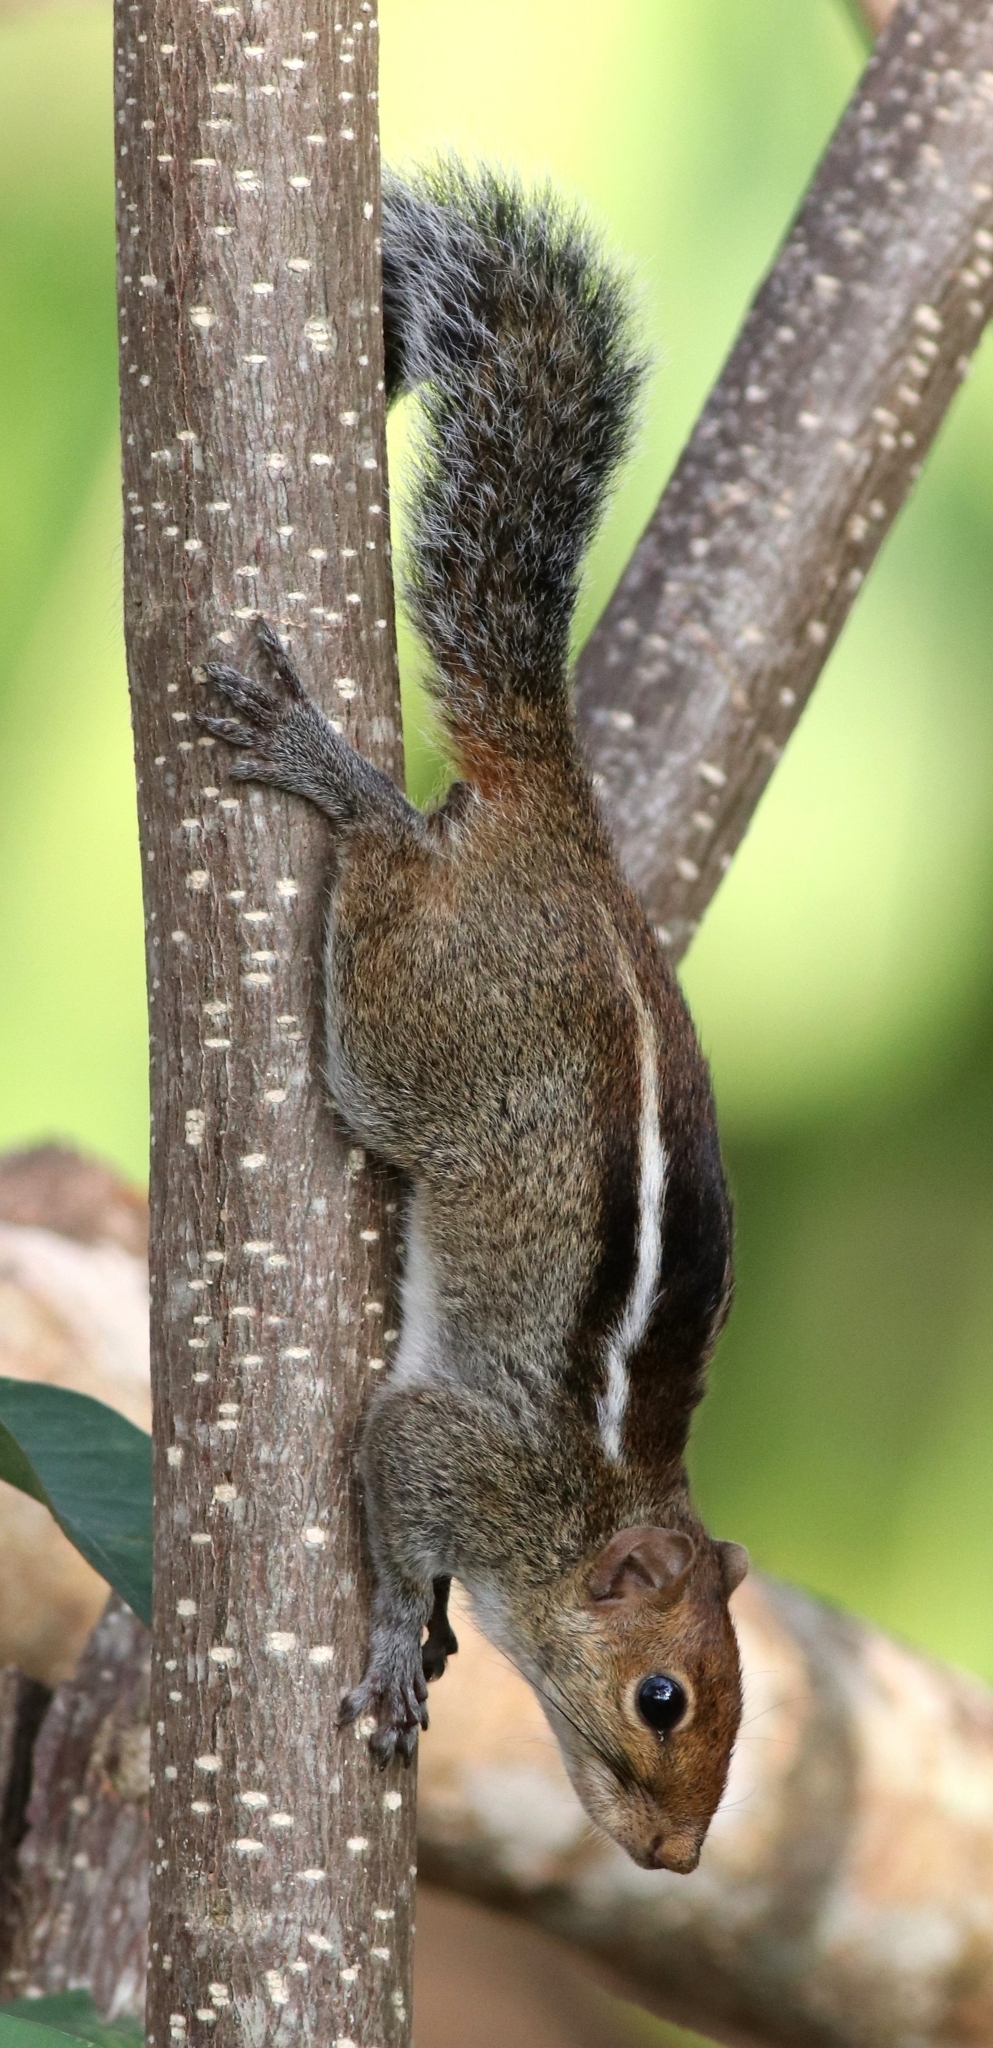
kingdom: Animalia
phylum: Chordata
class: Mammalia
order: Rodentia
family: Sciuridae
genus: Funambulus
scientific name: Funambulus tristriatus
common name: Jungle palm squirrel
